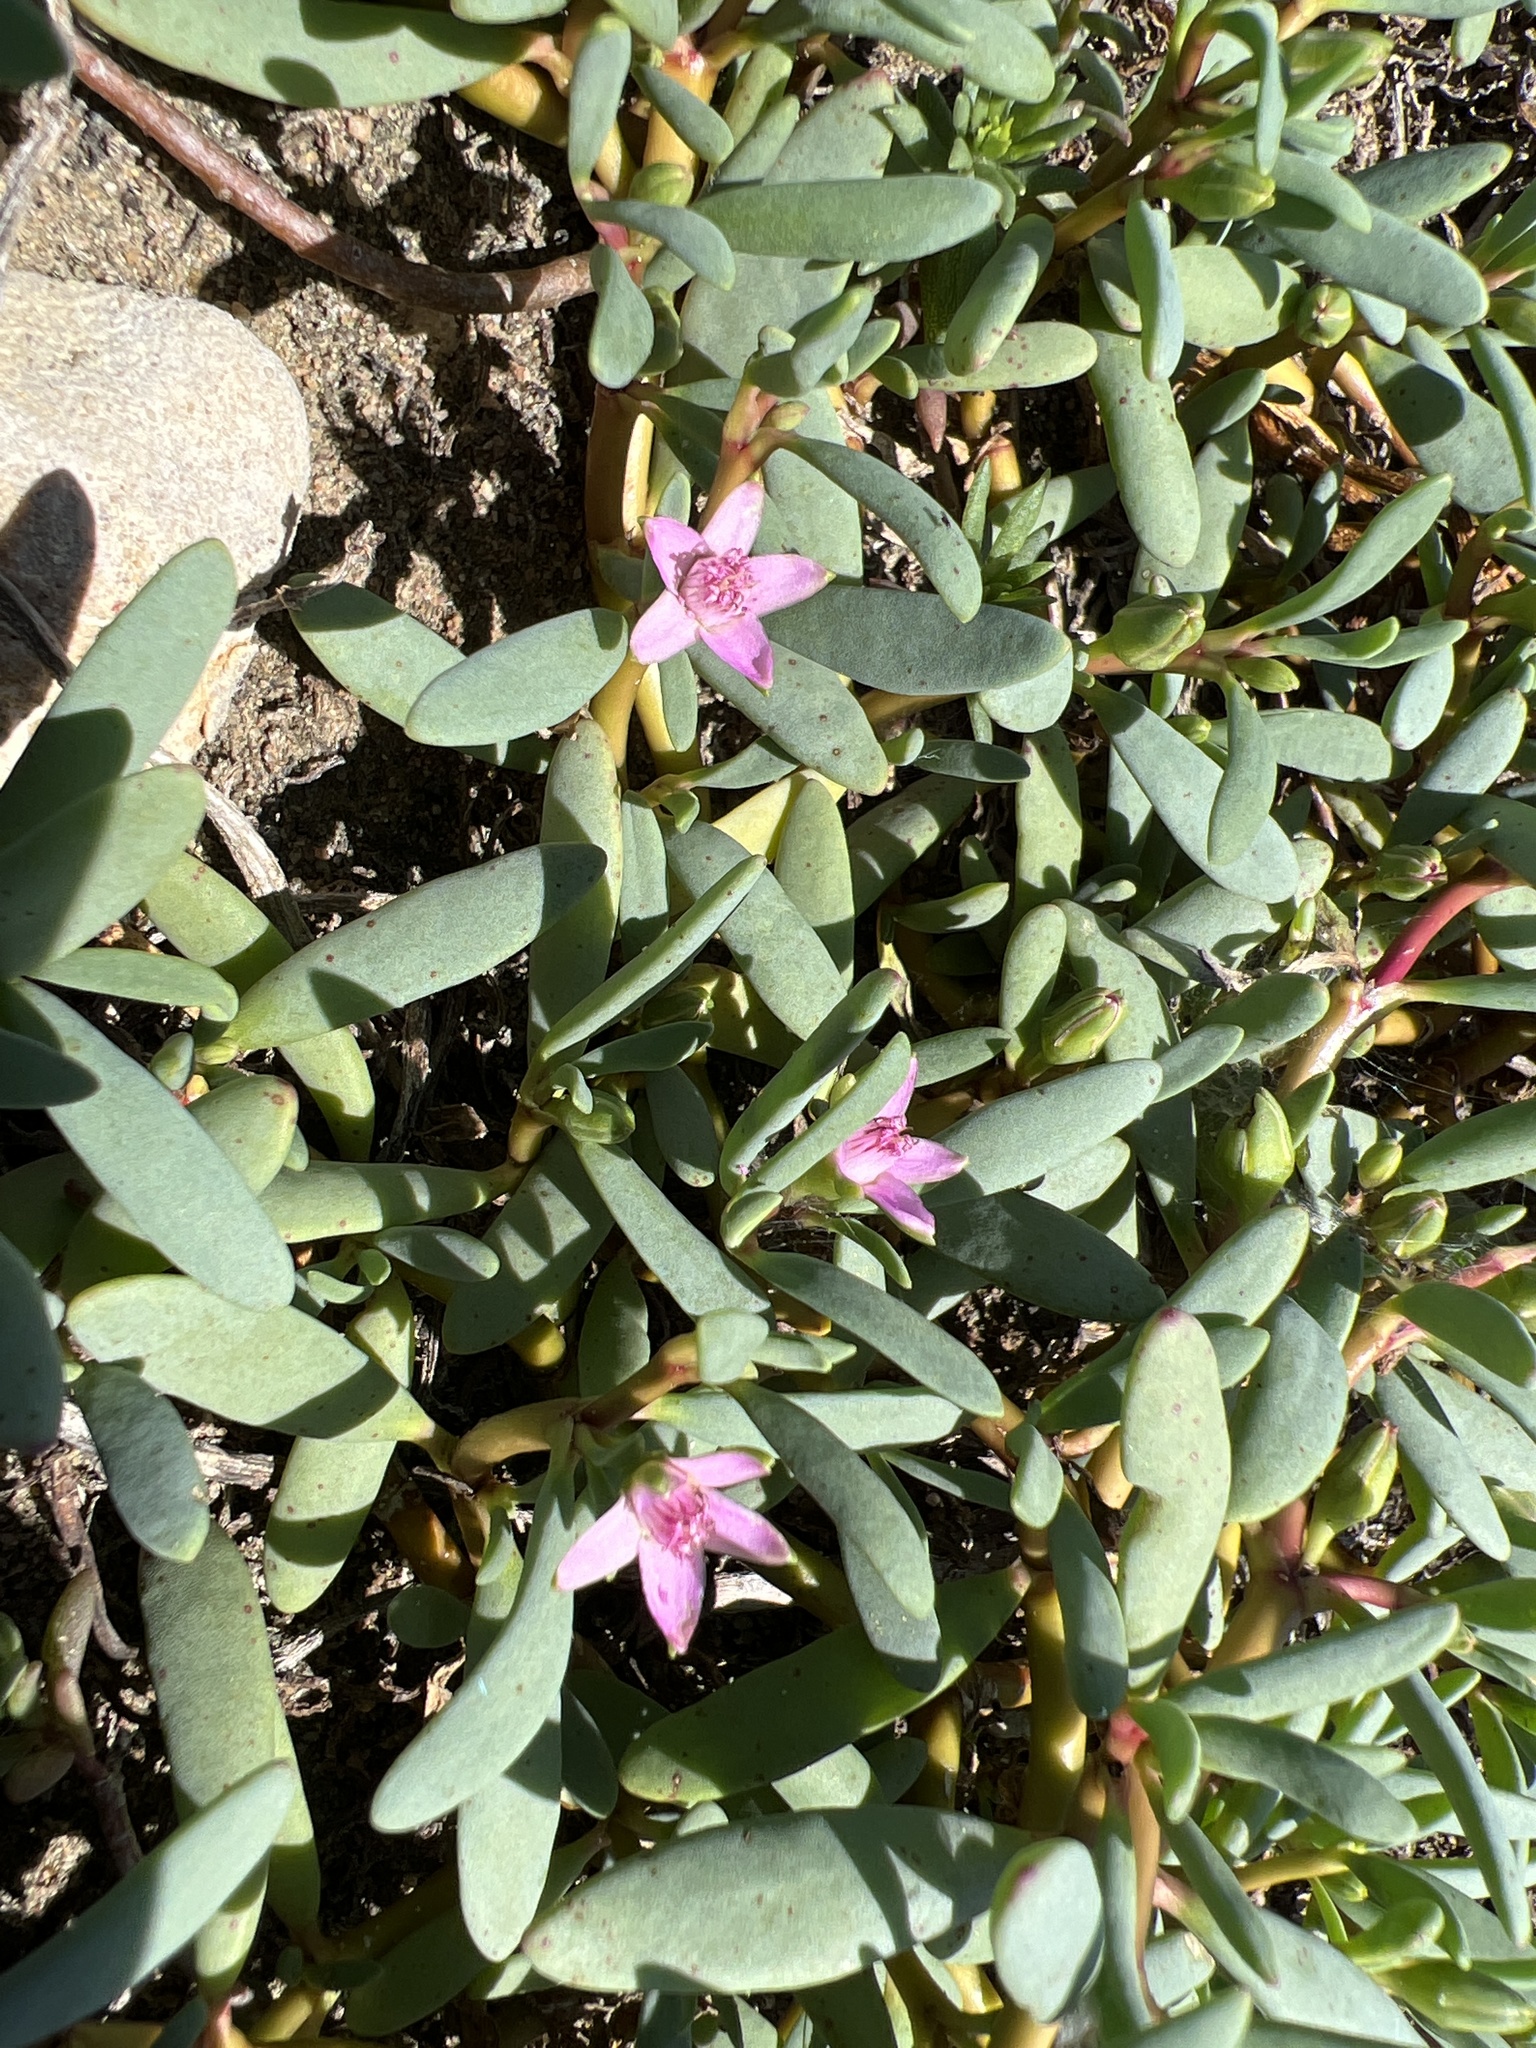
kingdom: Plantae
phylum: Tracheophyta
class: Magnoliopsida
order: Caryophyllales
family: Aizoaceae
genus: Sesuvium
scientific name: Sesuvium portulacastrum
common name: Sea-purslane
